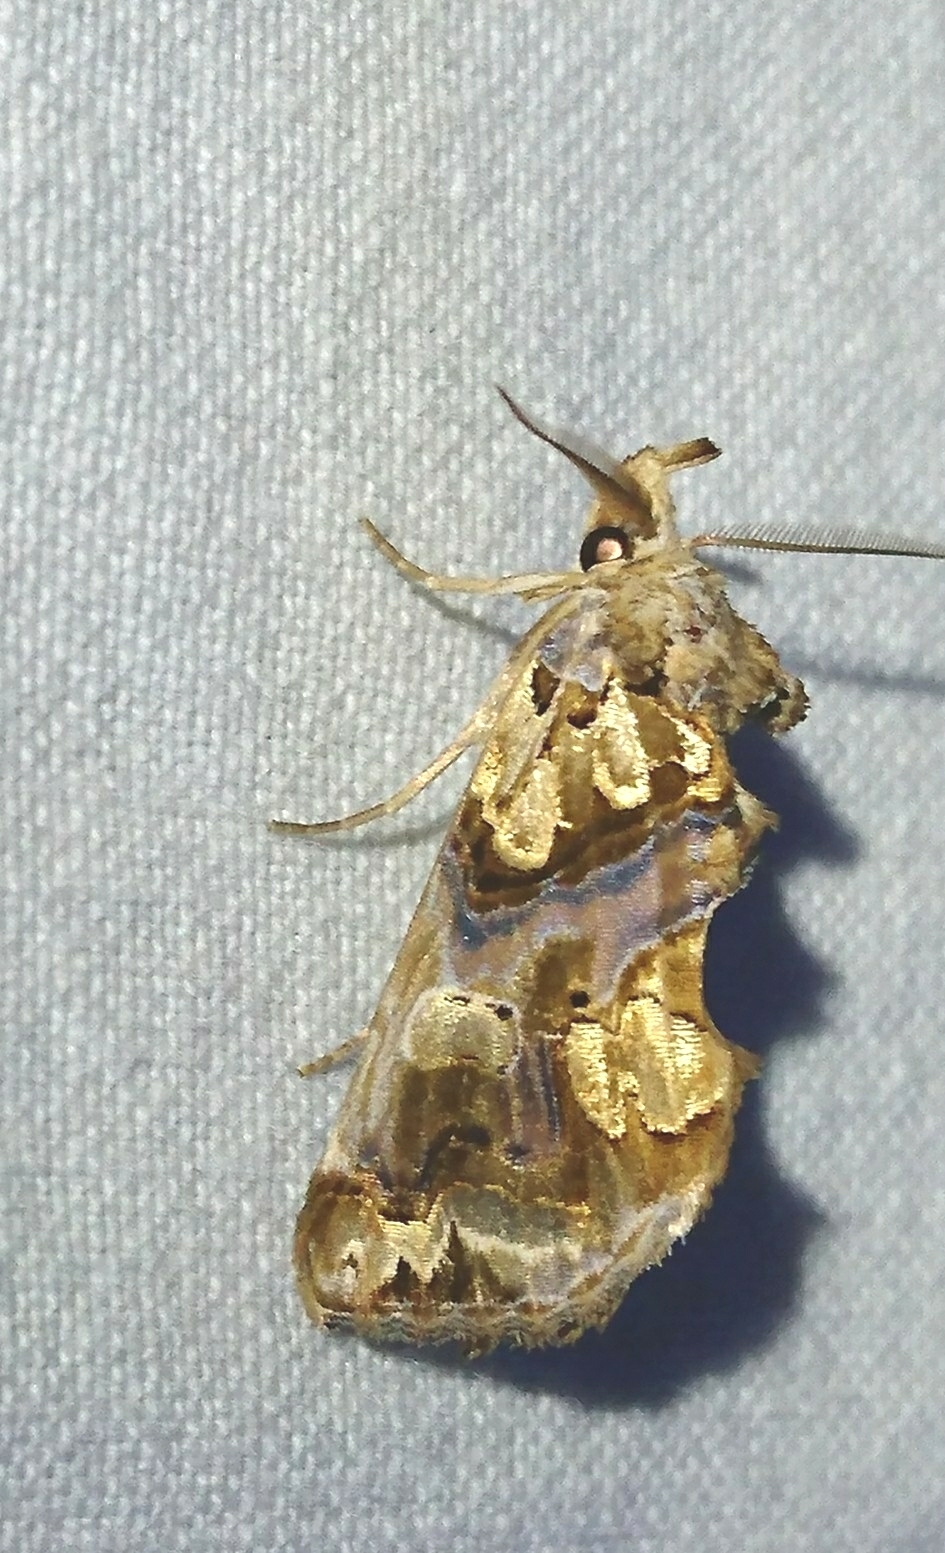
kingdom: Animalia
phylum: Arthropoda
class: Insecta
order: Lepidoptera
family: Erebidae
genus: Plusiodonta
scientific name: Plusiodonta compressipalpis
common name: Moonseed moth
